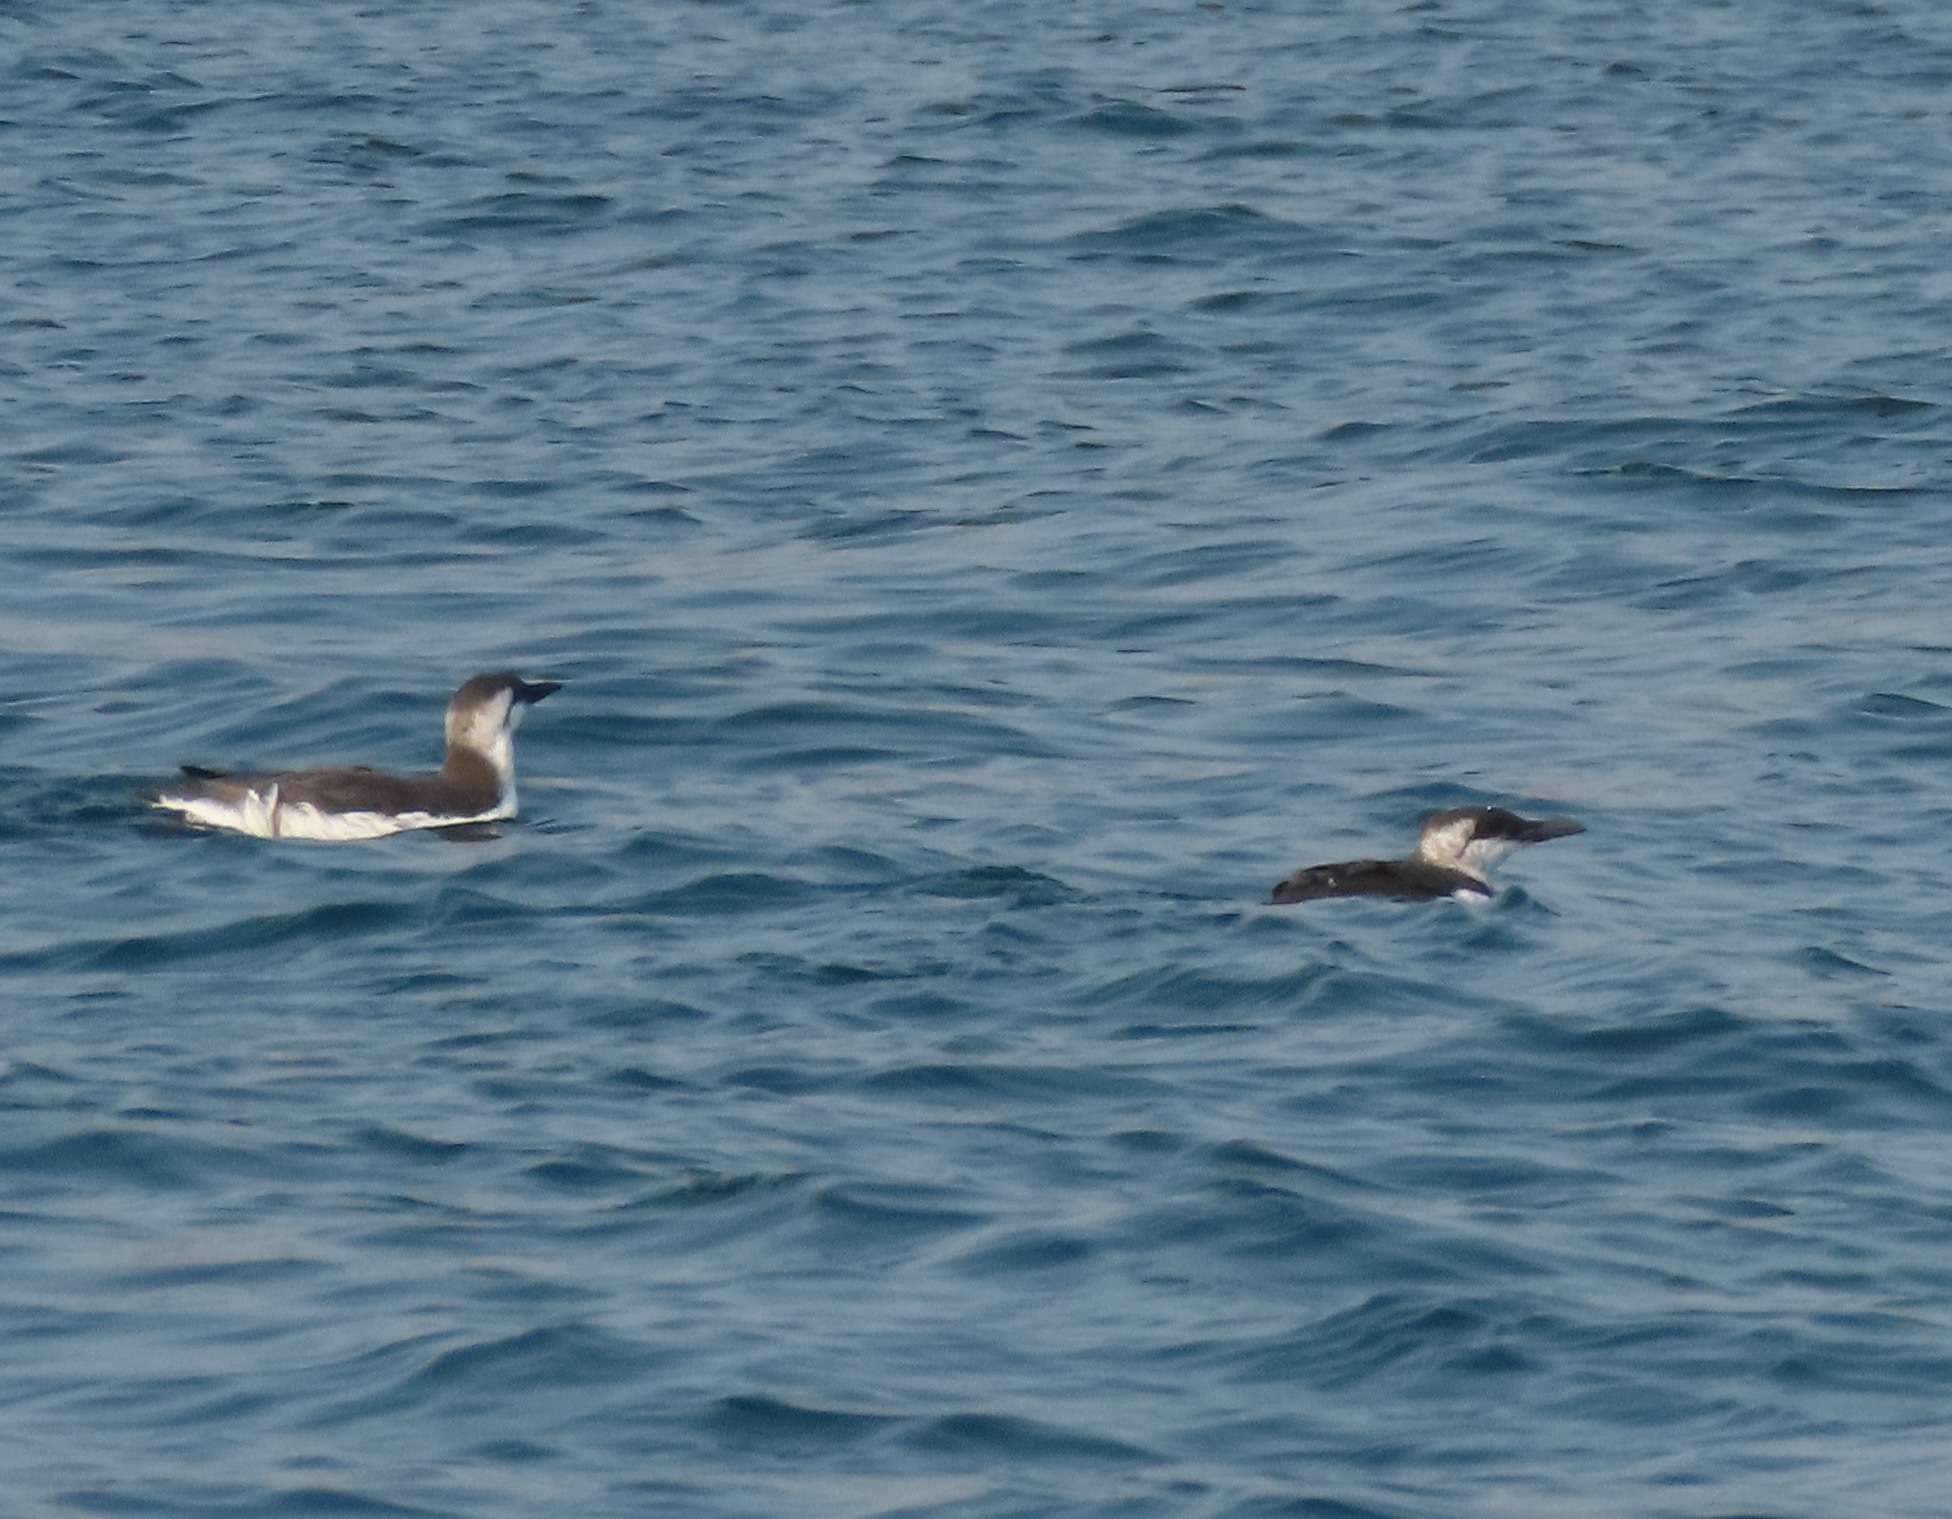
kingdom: Animalia
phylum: Chordata
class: Aves
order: Charadriiformes
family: Alcidae
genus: Uria
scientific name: Uria aalge
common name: Common murre
